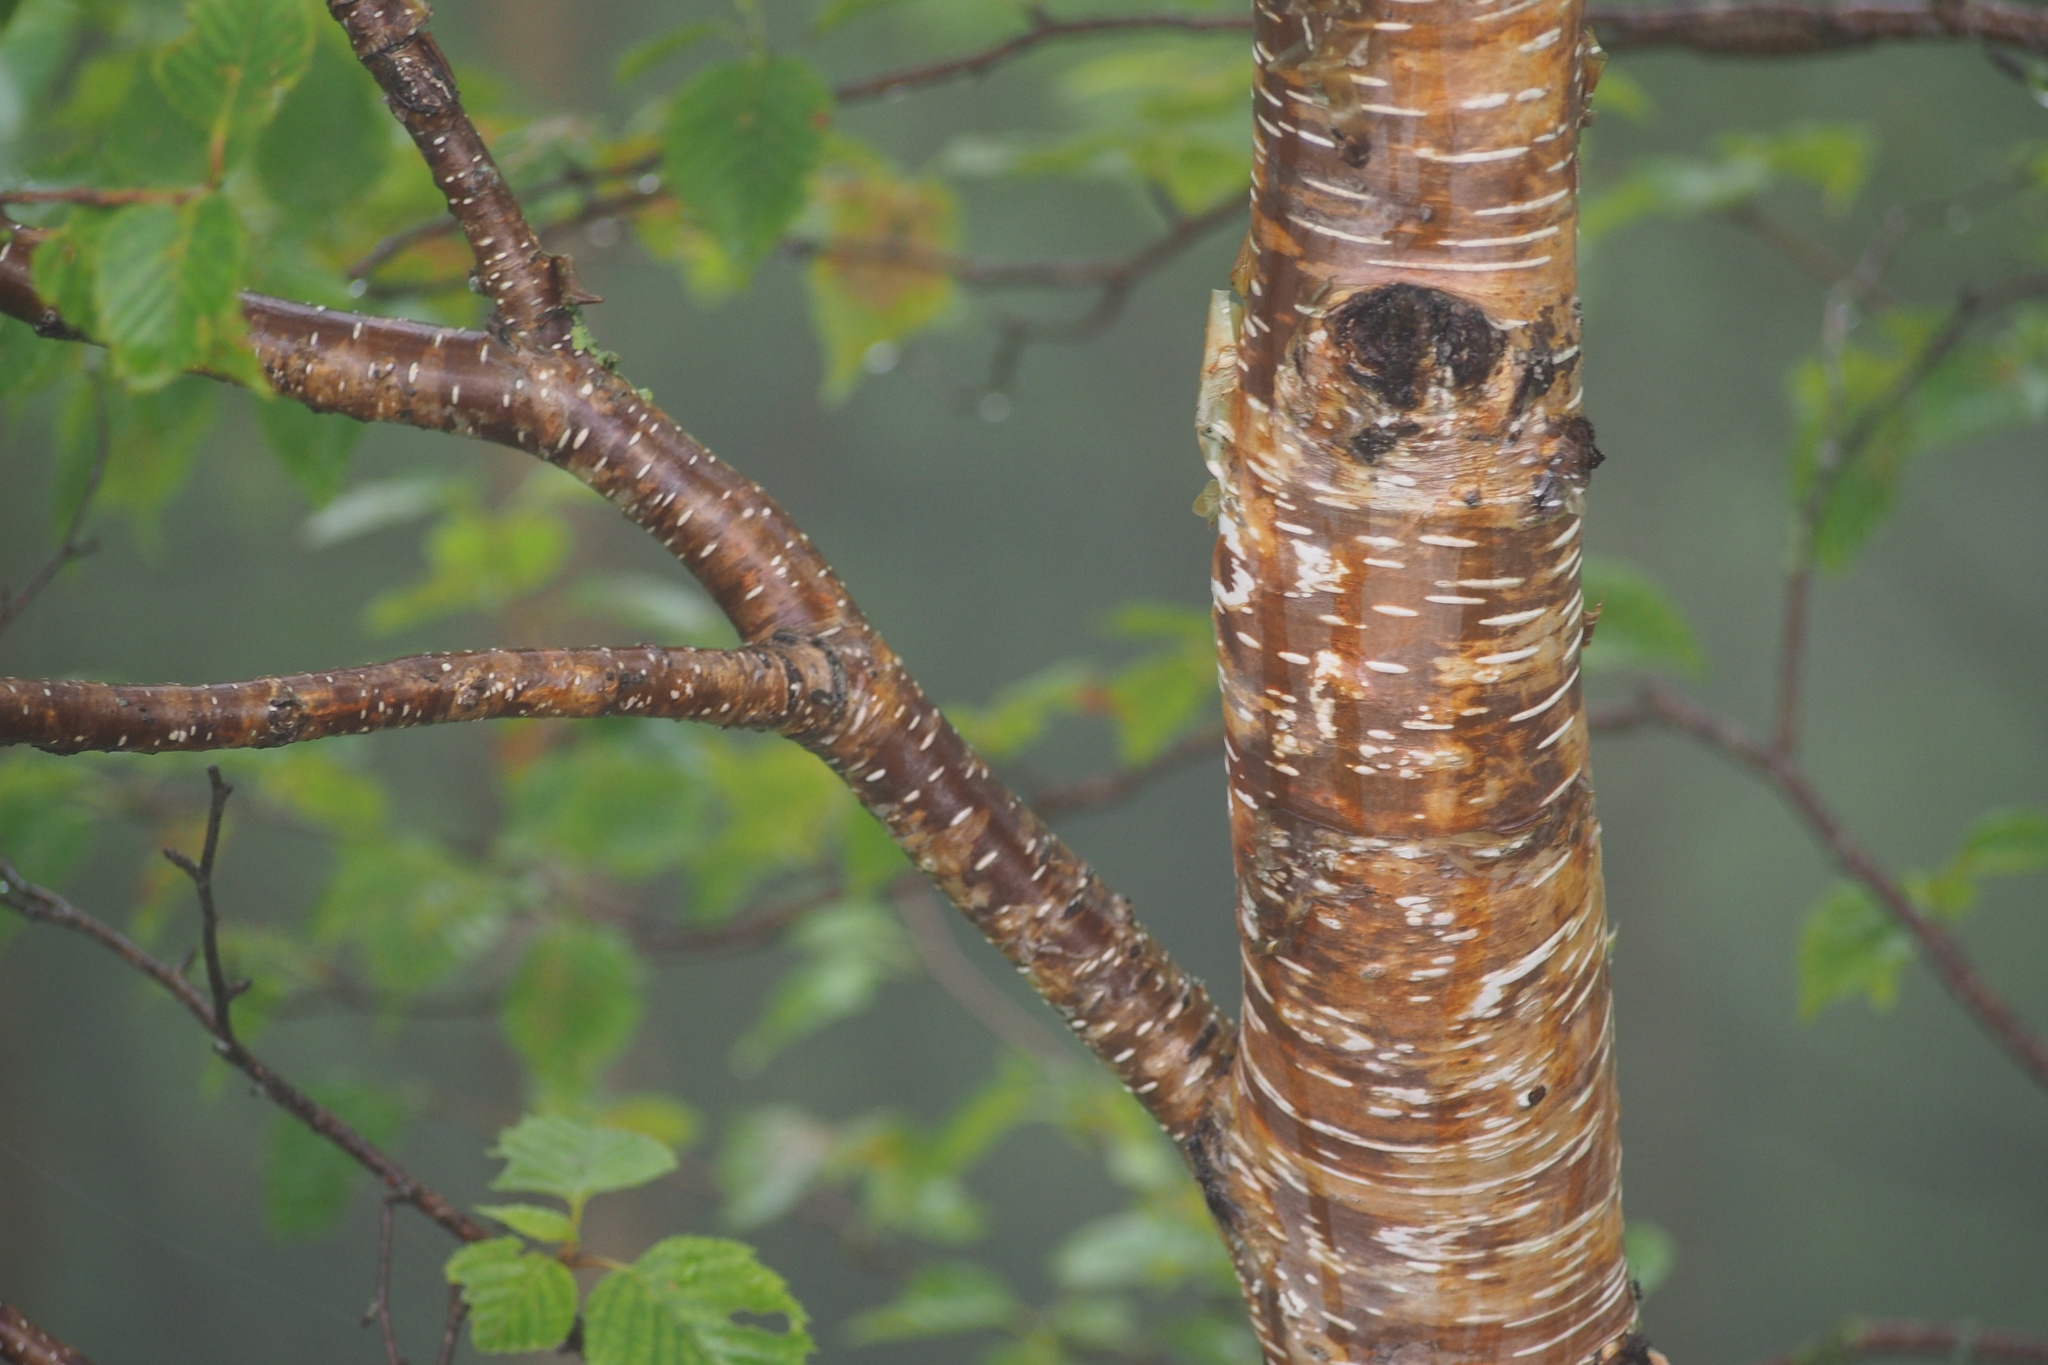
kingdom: Plantae
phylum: Tracheophyta
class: Magnoliopsida
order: Fagales
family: Betulaceae
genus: Betula
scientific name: Betula ermanii
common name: Erman's birch
